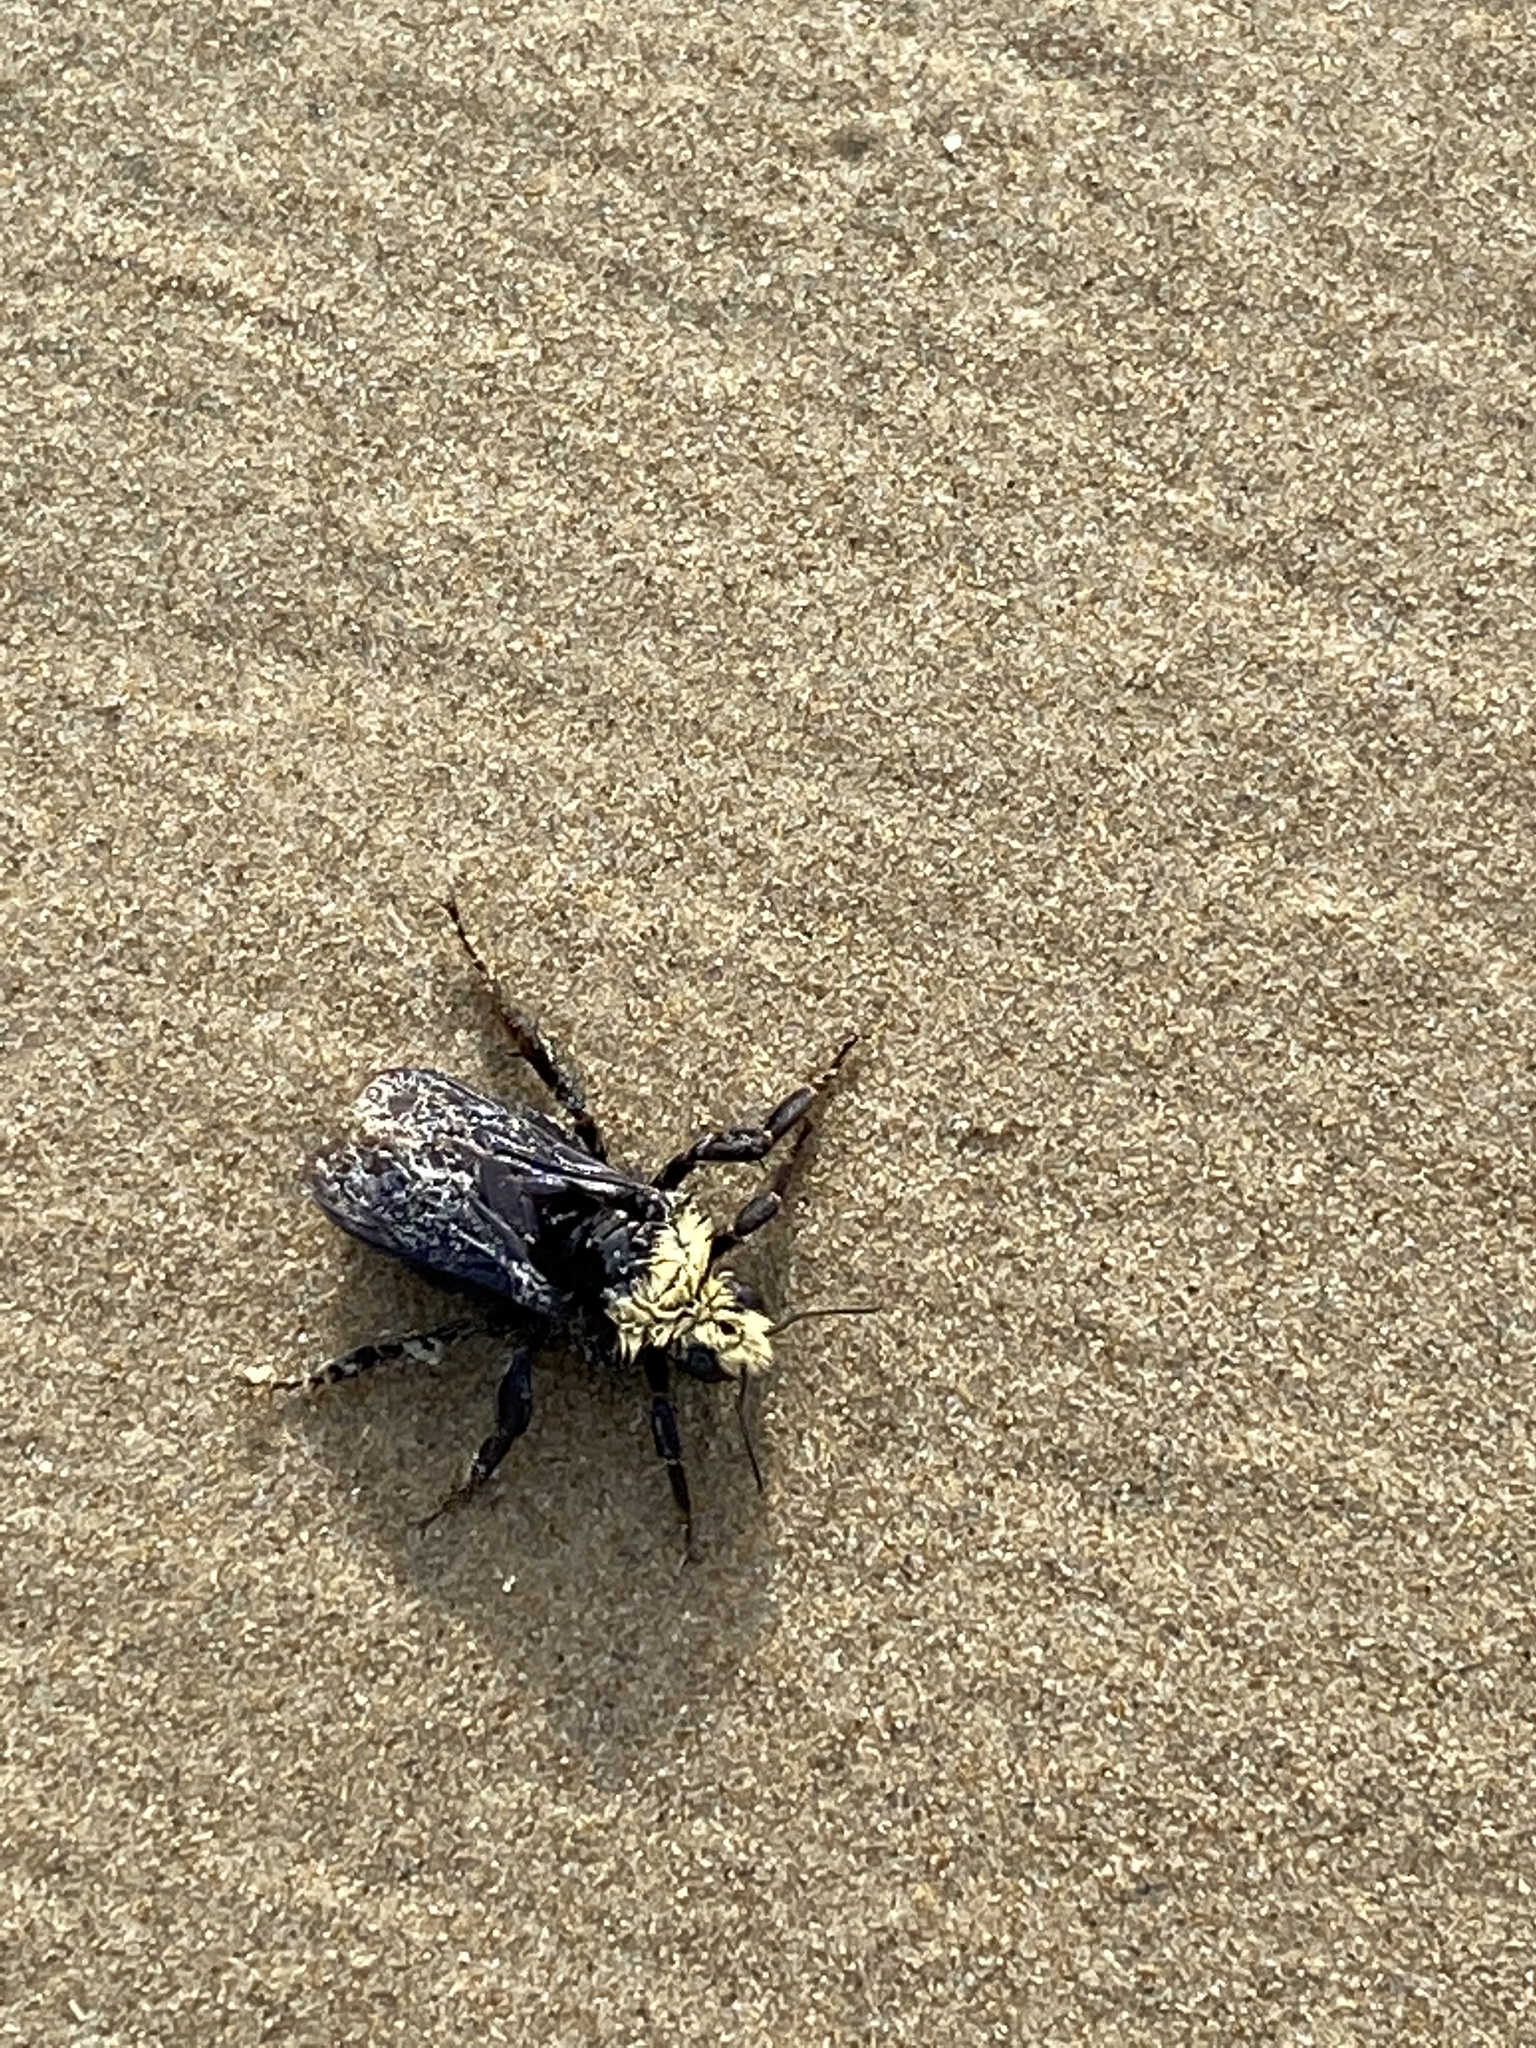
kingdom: Animalia
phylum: Arthropoda
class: Insecta
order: Hymenoptera
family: Apidae
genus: Bombus
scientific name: Bombus vosnesenskii
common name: Vosnesensky bumble bee
